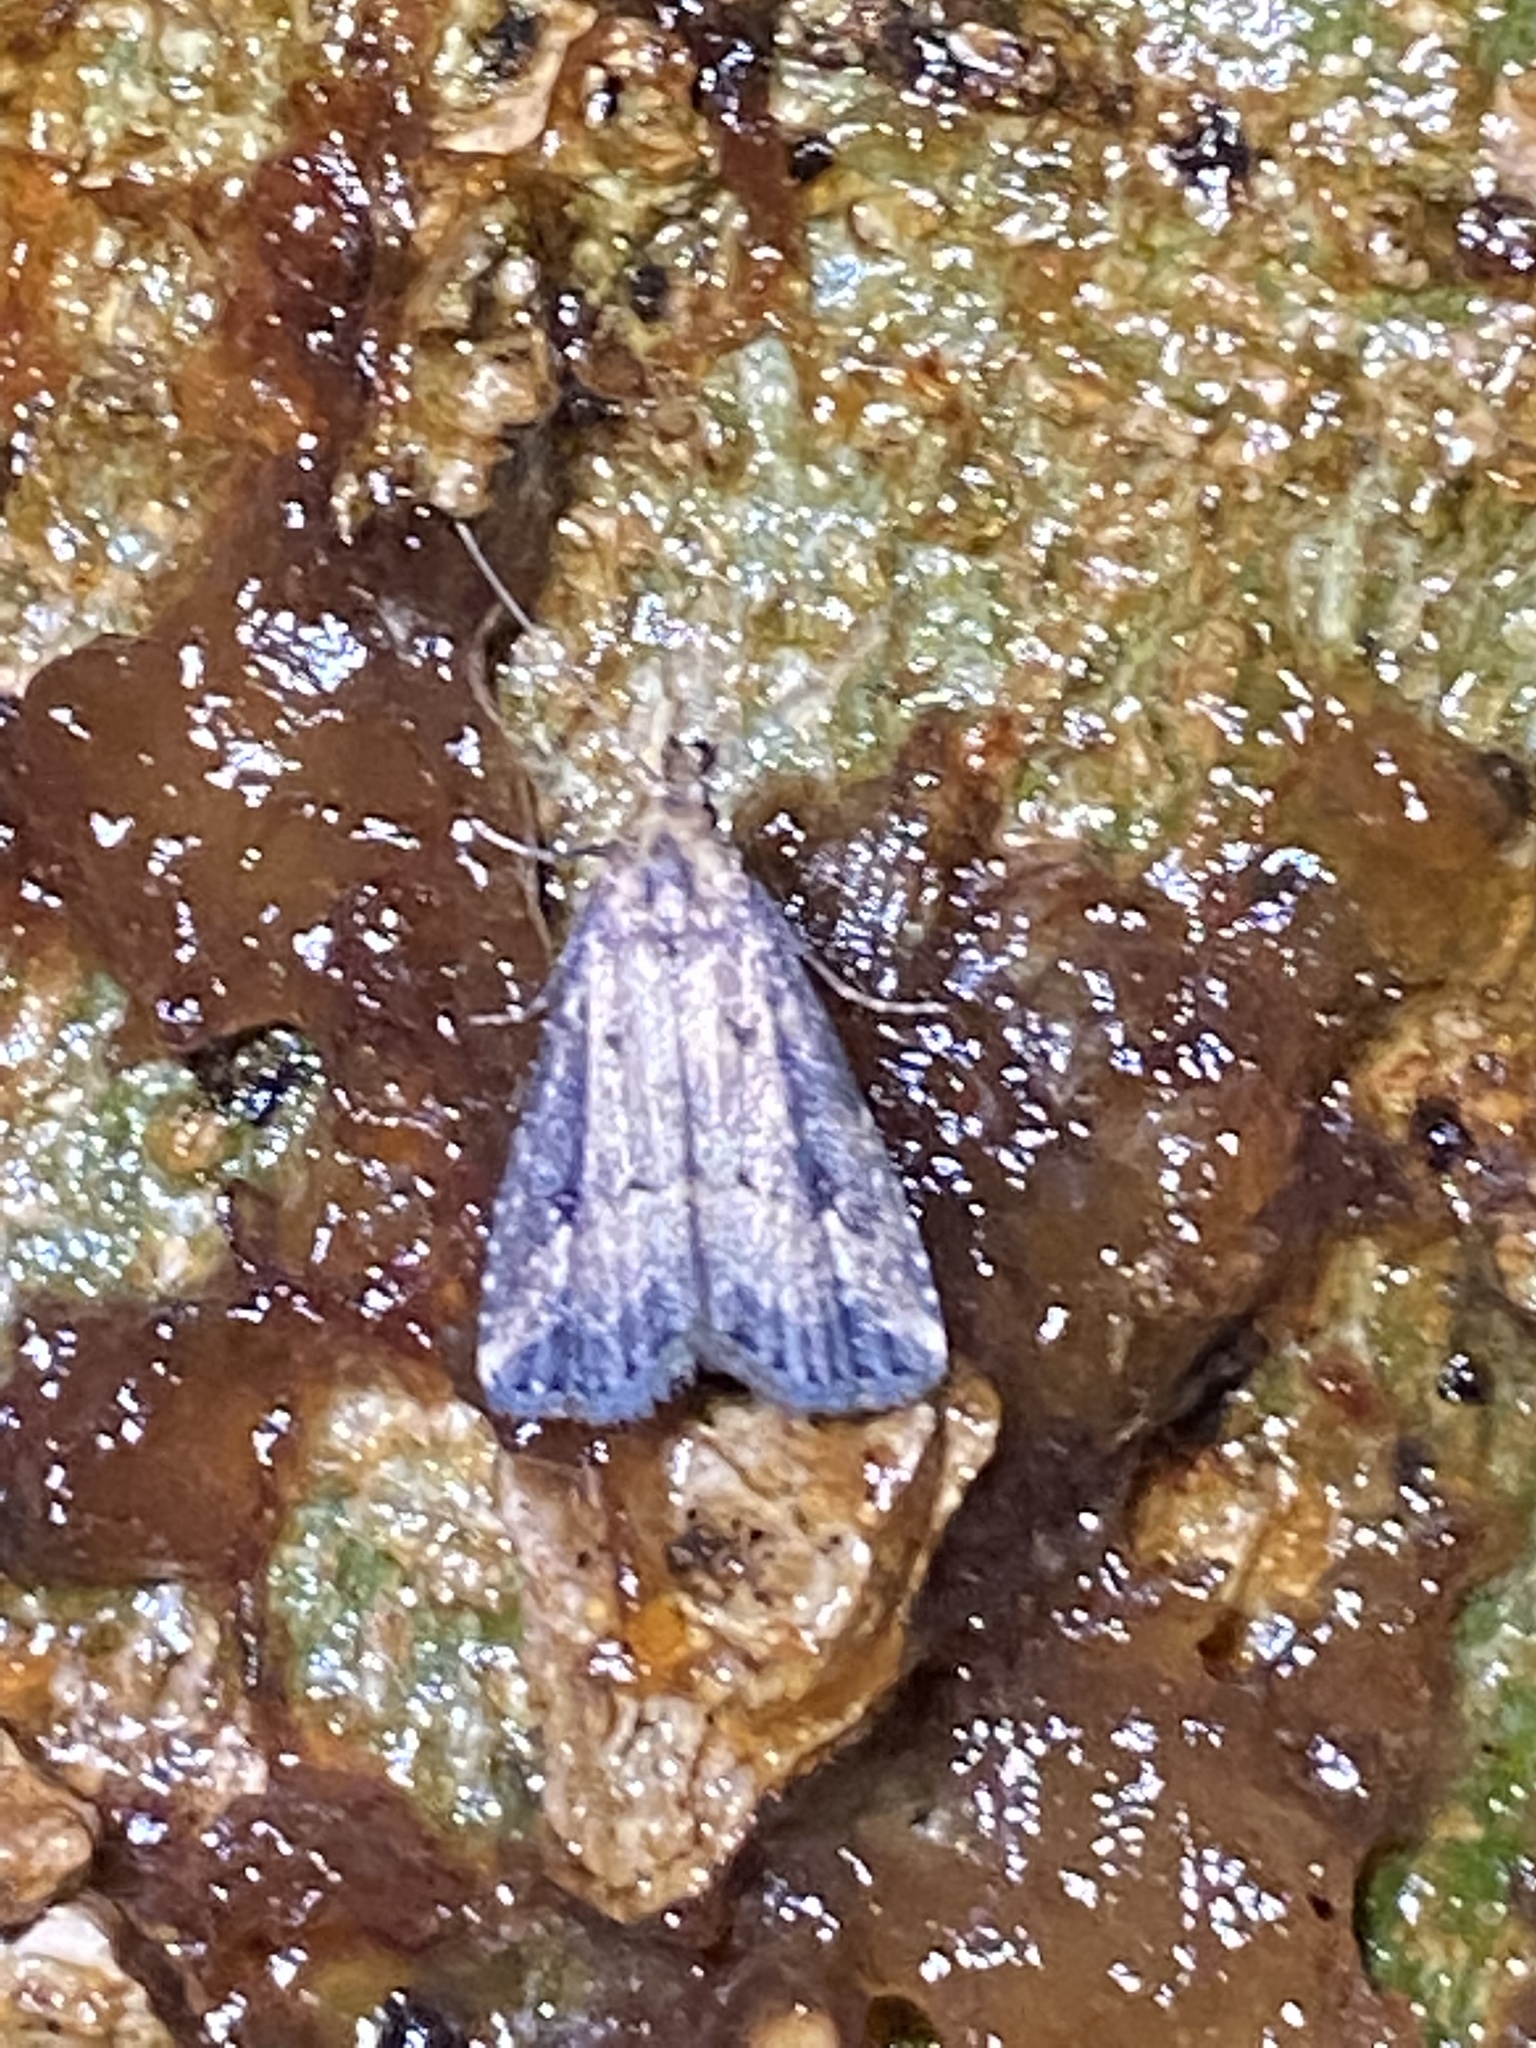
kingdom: Animalia
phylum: Arthropoda
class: Insecta
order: Lepidoptera
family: Erebidae
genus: Schrankia
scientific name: Schrankia
